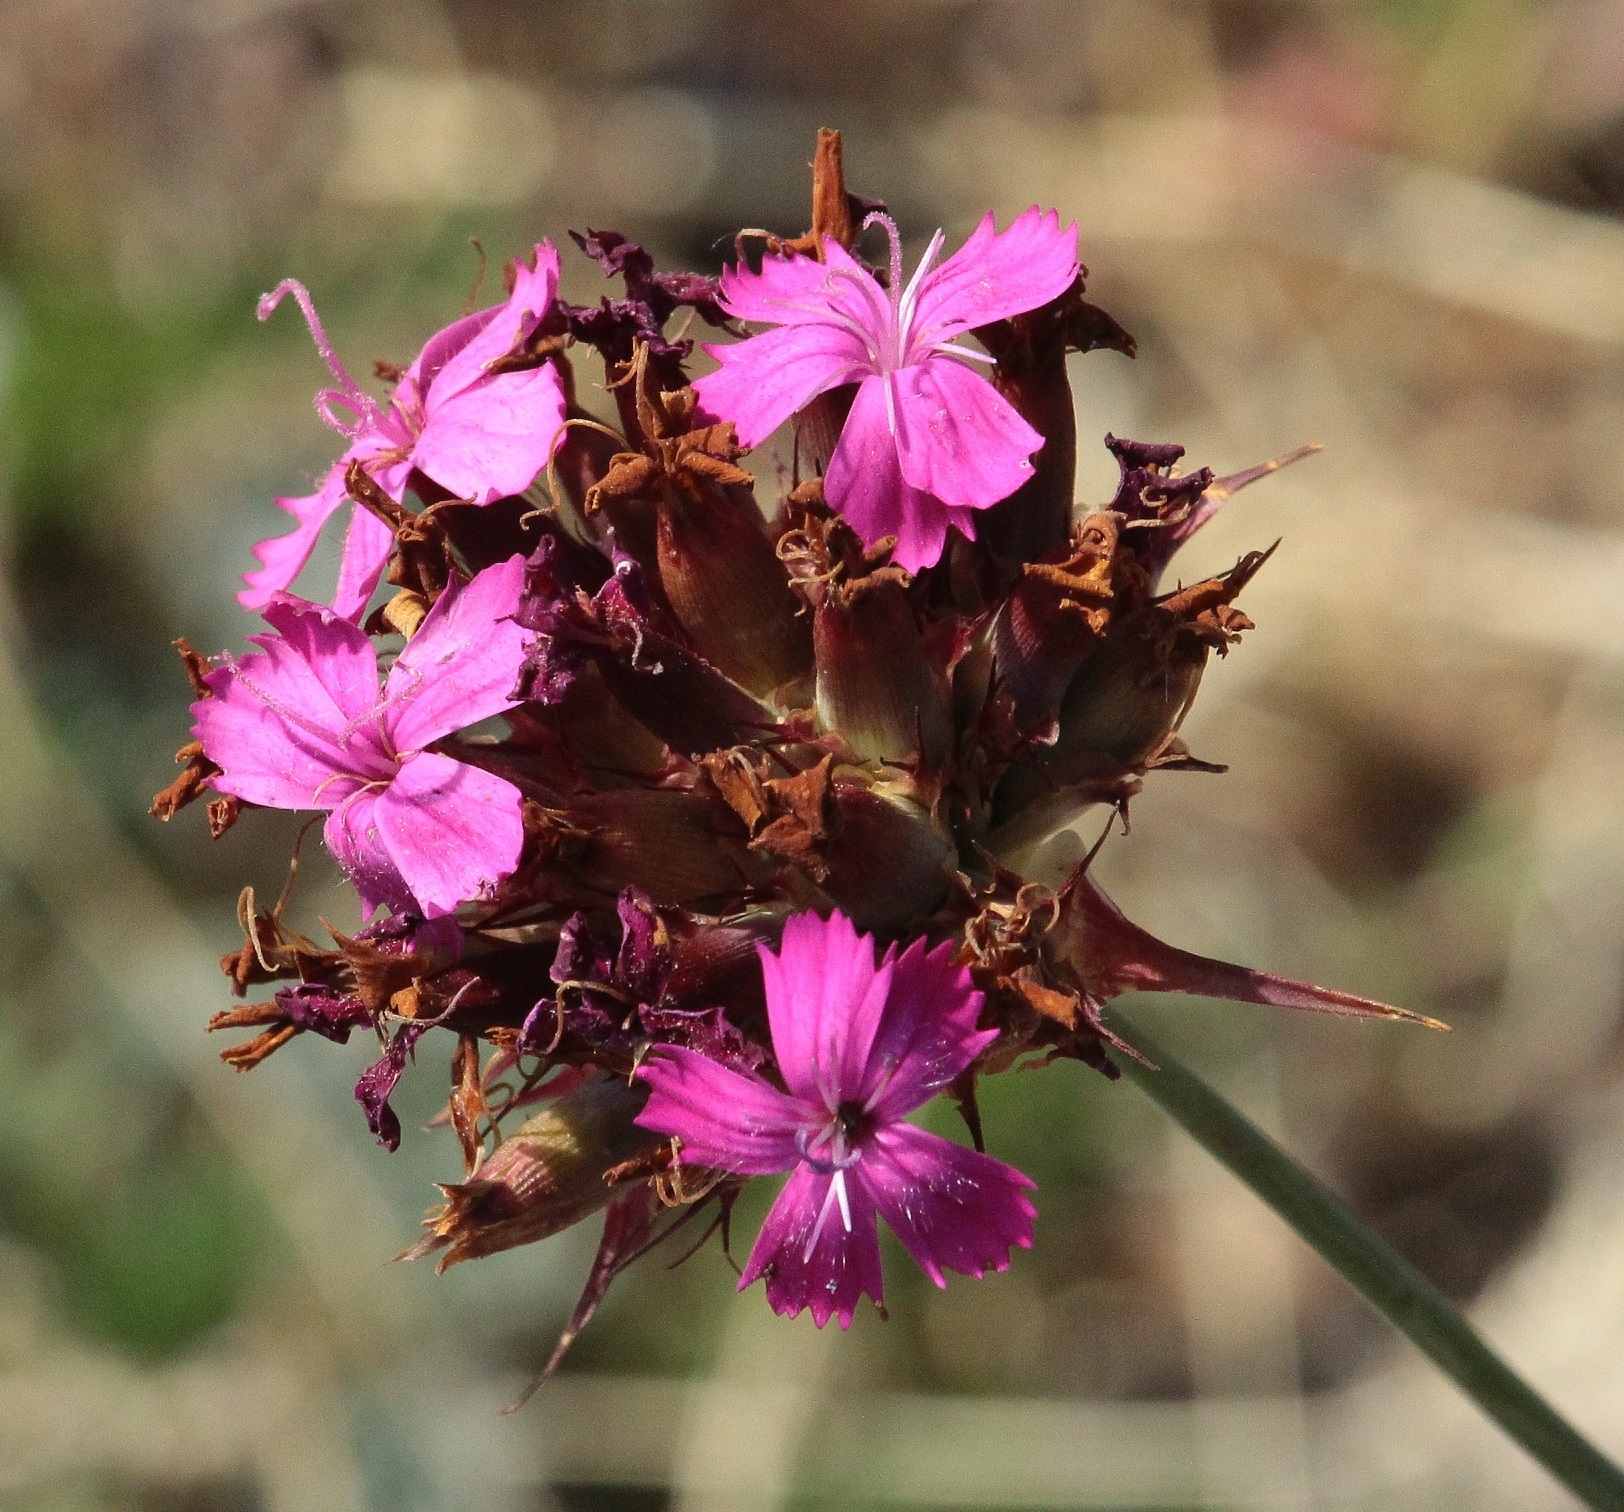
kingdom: Plantae
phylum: Tracheophyta
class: Magnoliopsida
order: Caryophyllales
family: Caryophyllaceae
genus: Dianthus
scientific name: Dianthus capitatus
